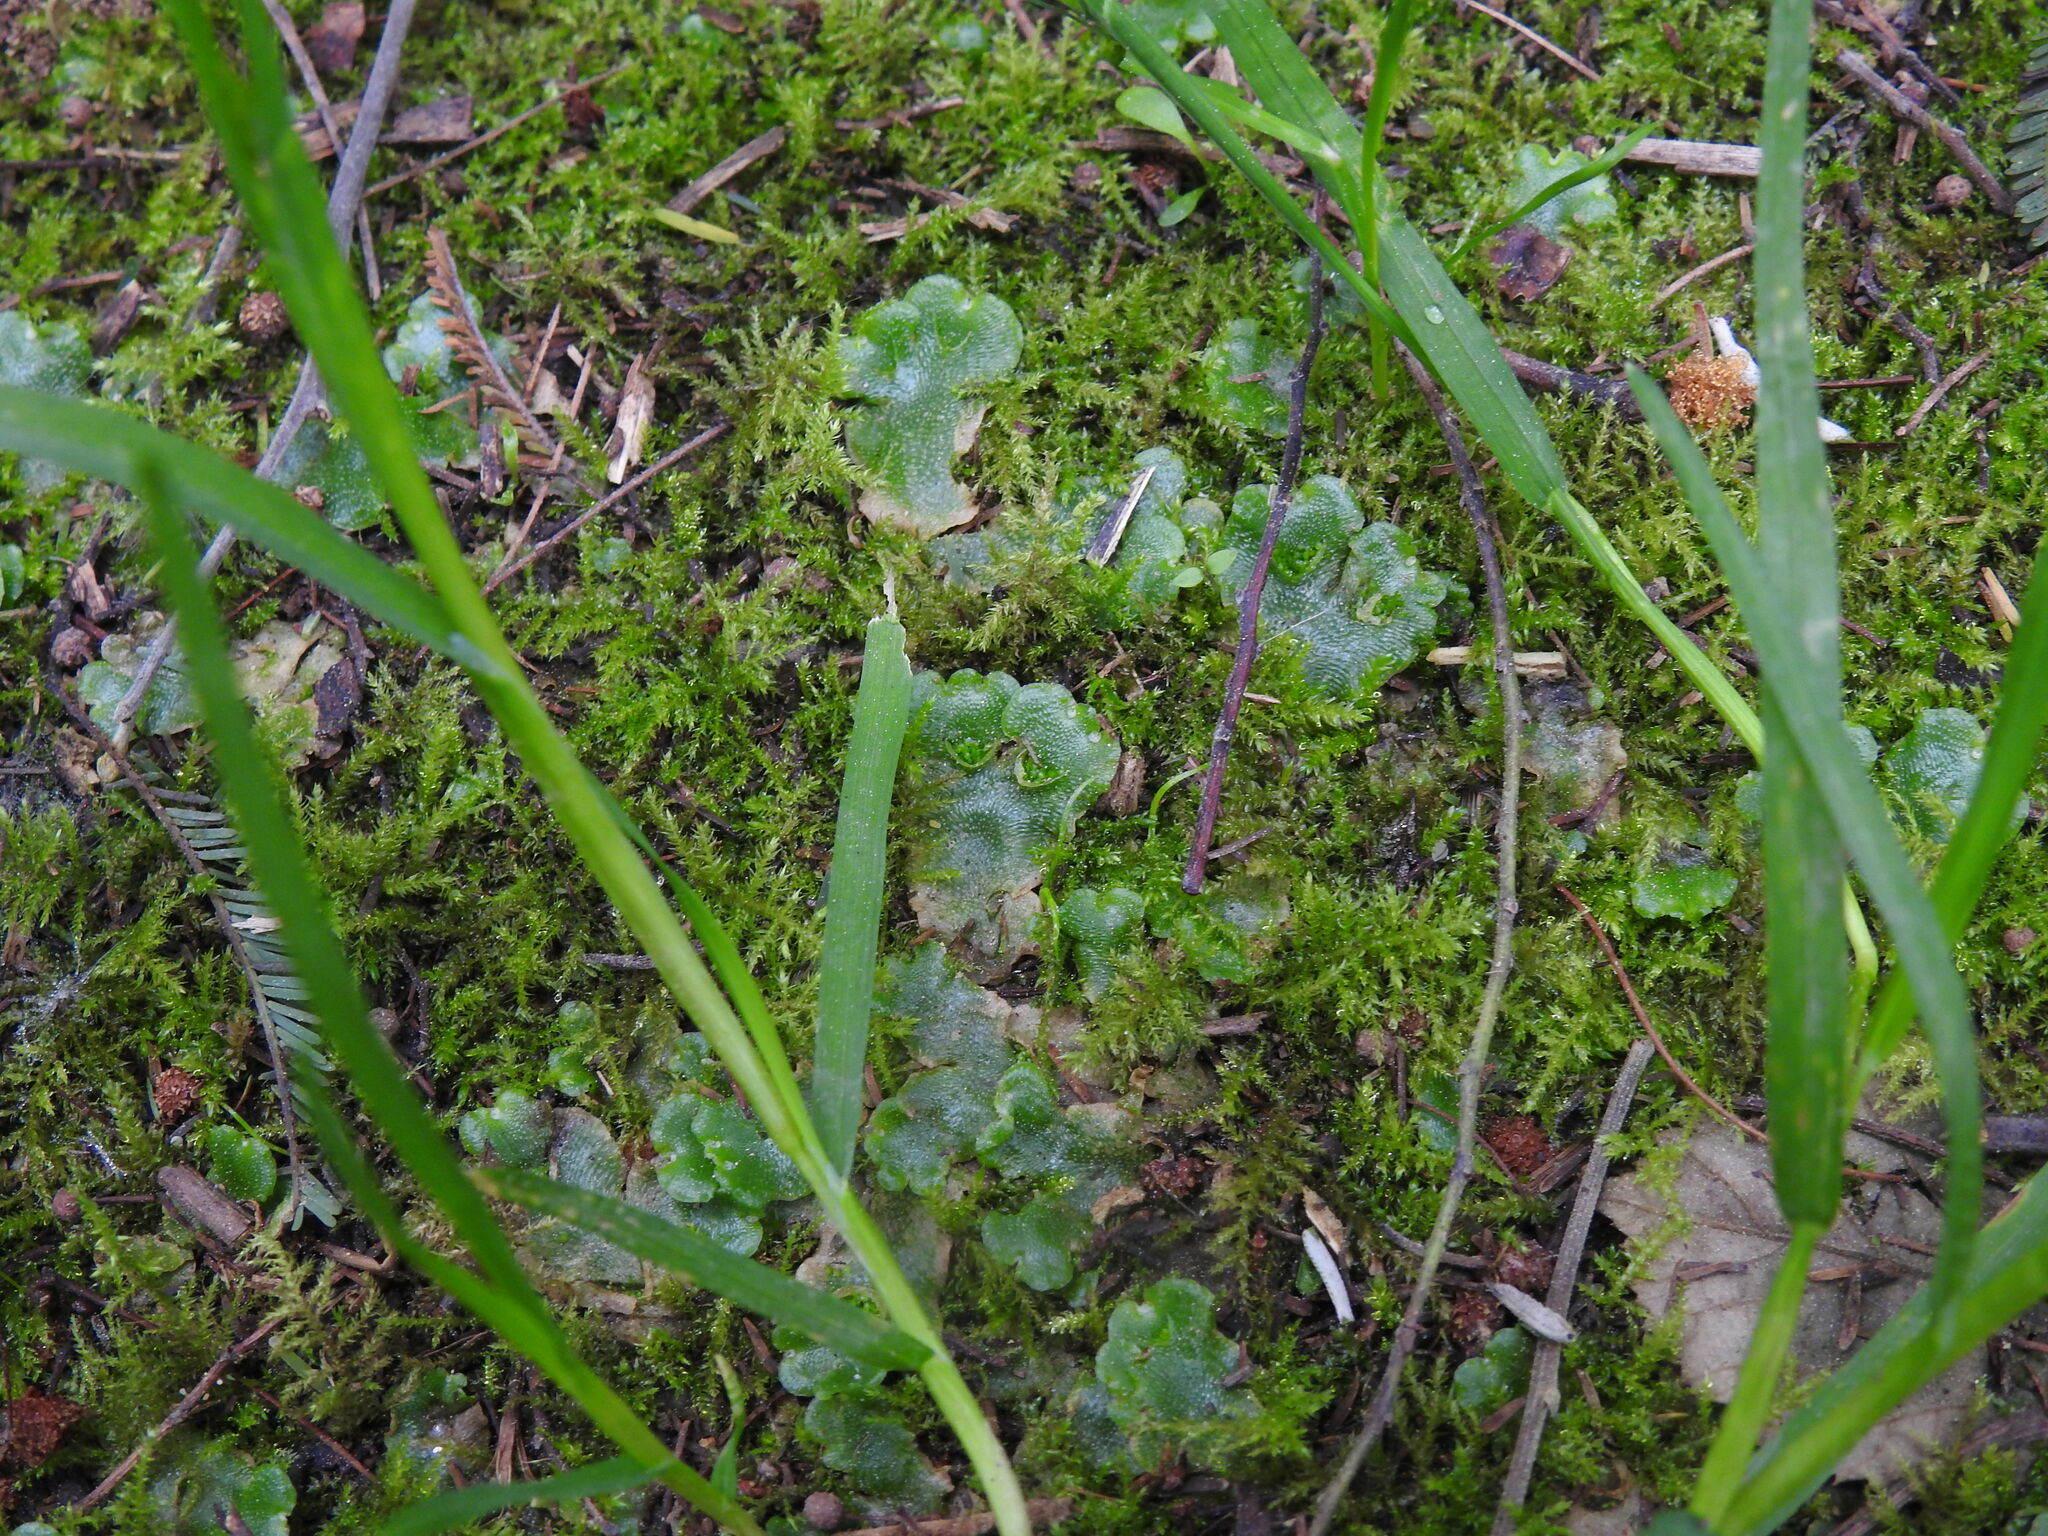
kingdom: Plantae
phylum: Marchantiophyta
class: Marchantiopsida
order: Lunulariales
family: Lunulariaceae
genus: Lunularia
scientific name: Lunularia cruciata
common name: Crescent-cup liverwort
